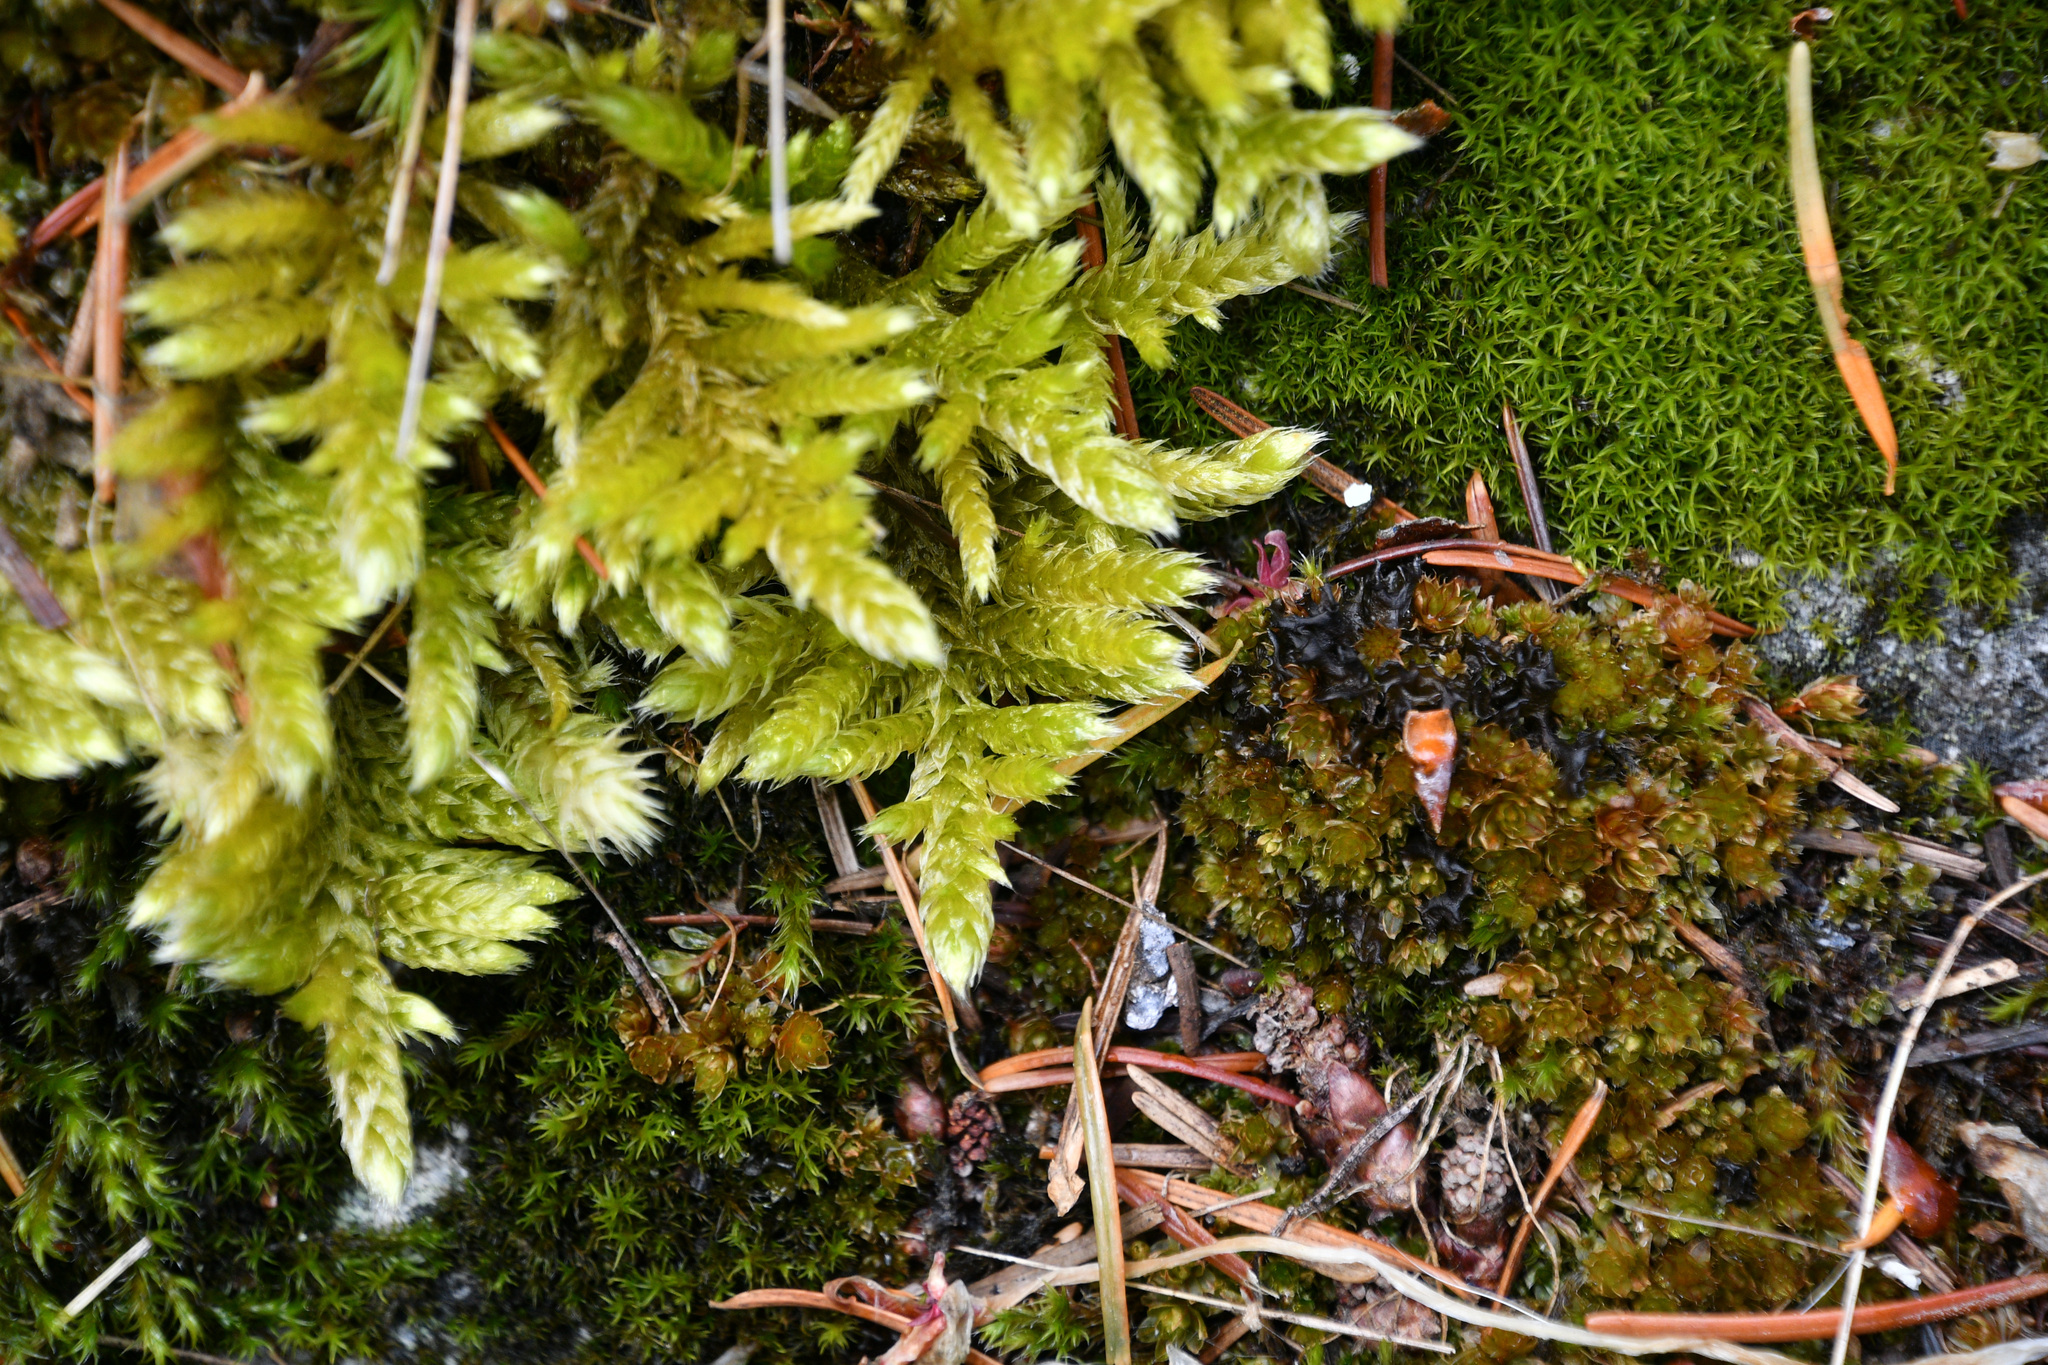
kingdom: Plantae
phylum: Bryophyta
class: Bryopsida
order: Hypnales
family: Brachytheciaceae
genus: Homalothecium
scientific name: Homalothecium megaptilum
